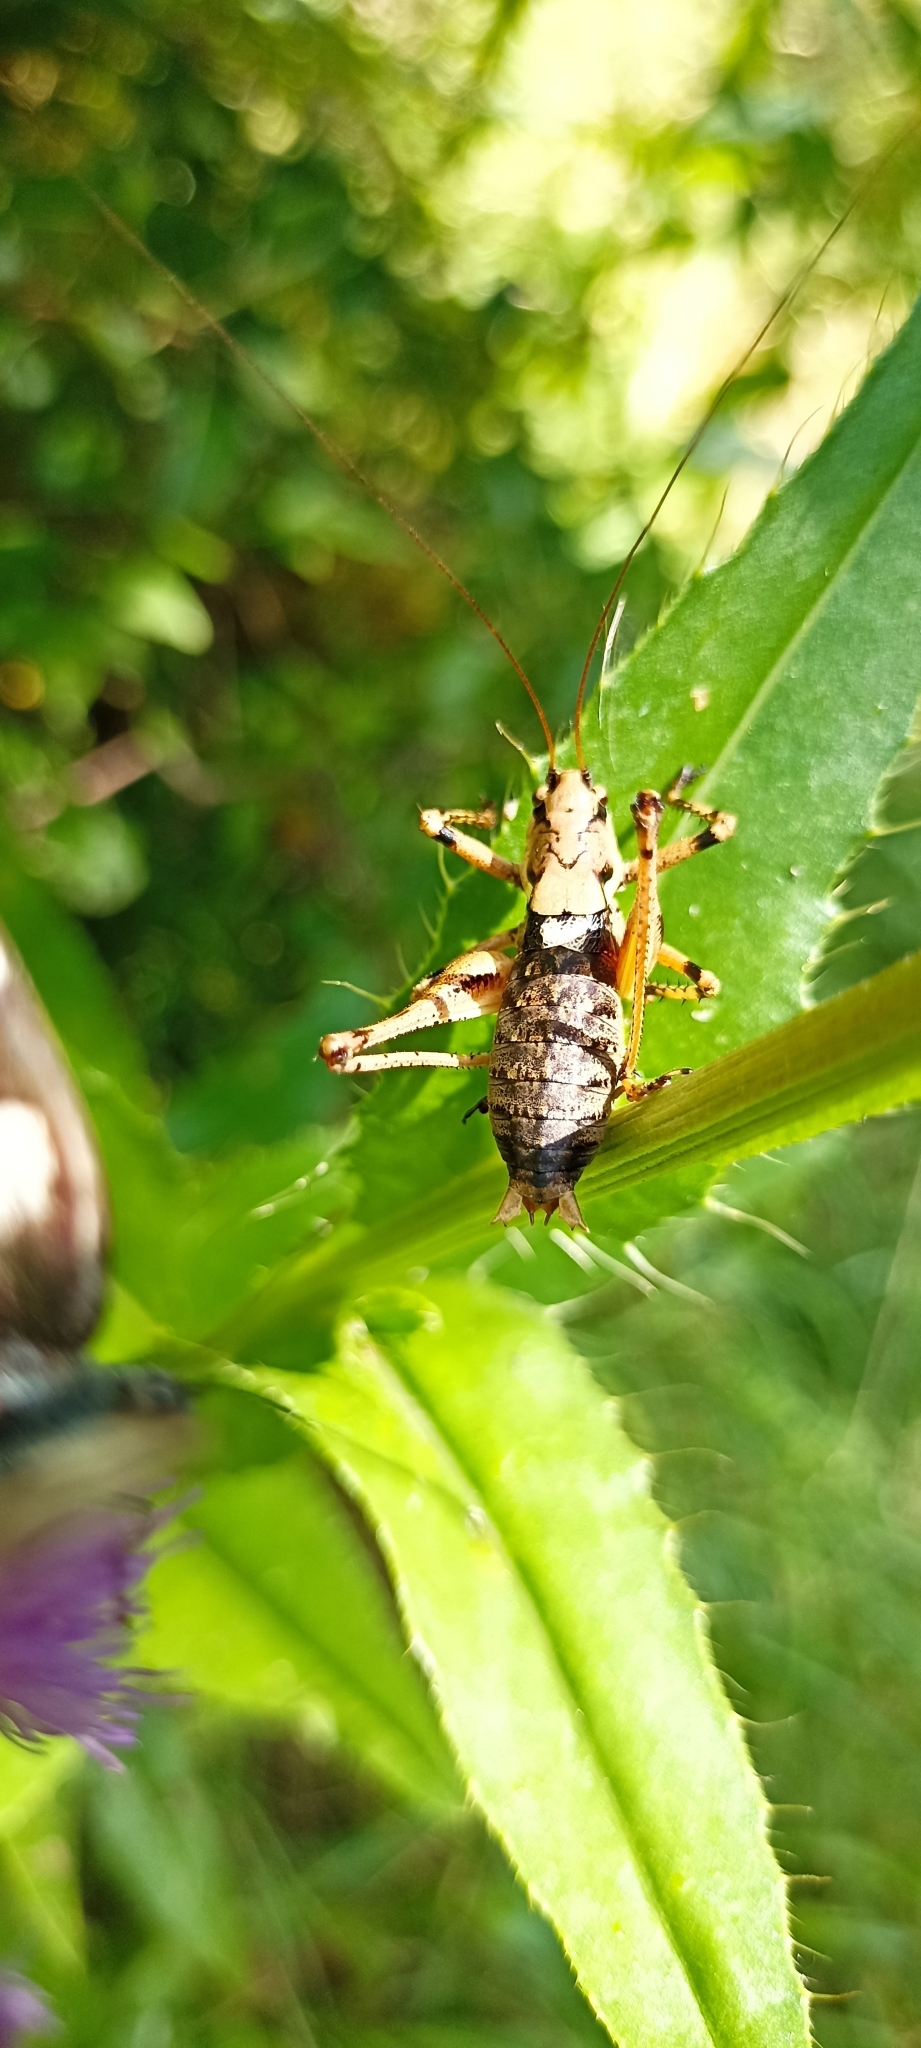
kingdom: Animalia
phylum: Arthropoda
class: Insecta
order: Orthoptera
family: Tettigoniidae
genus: Antaxius
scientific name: Antaxius pedestris
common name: Common mountain bush-cricket
